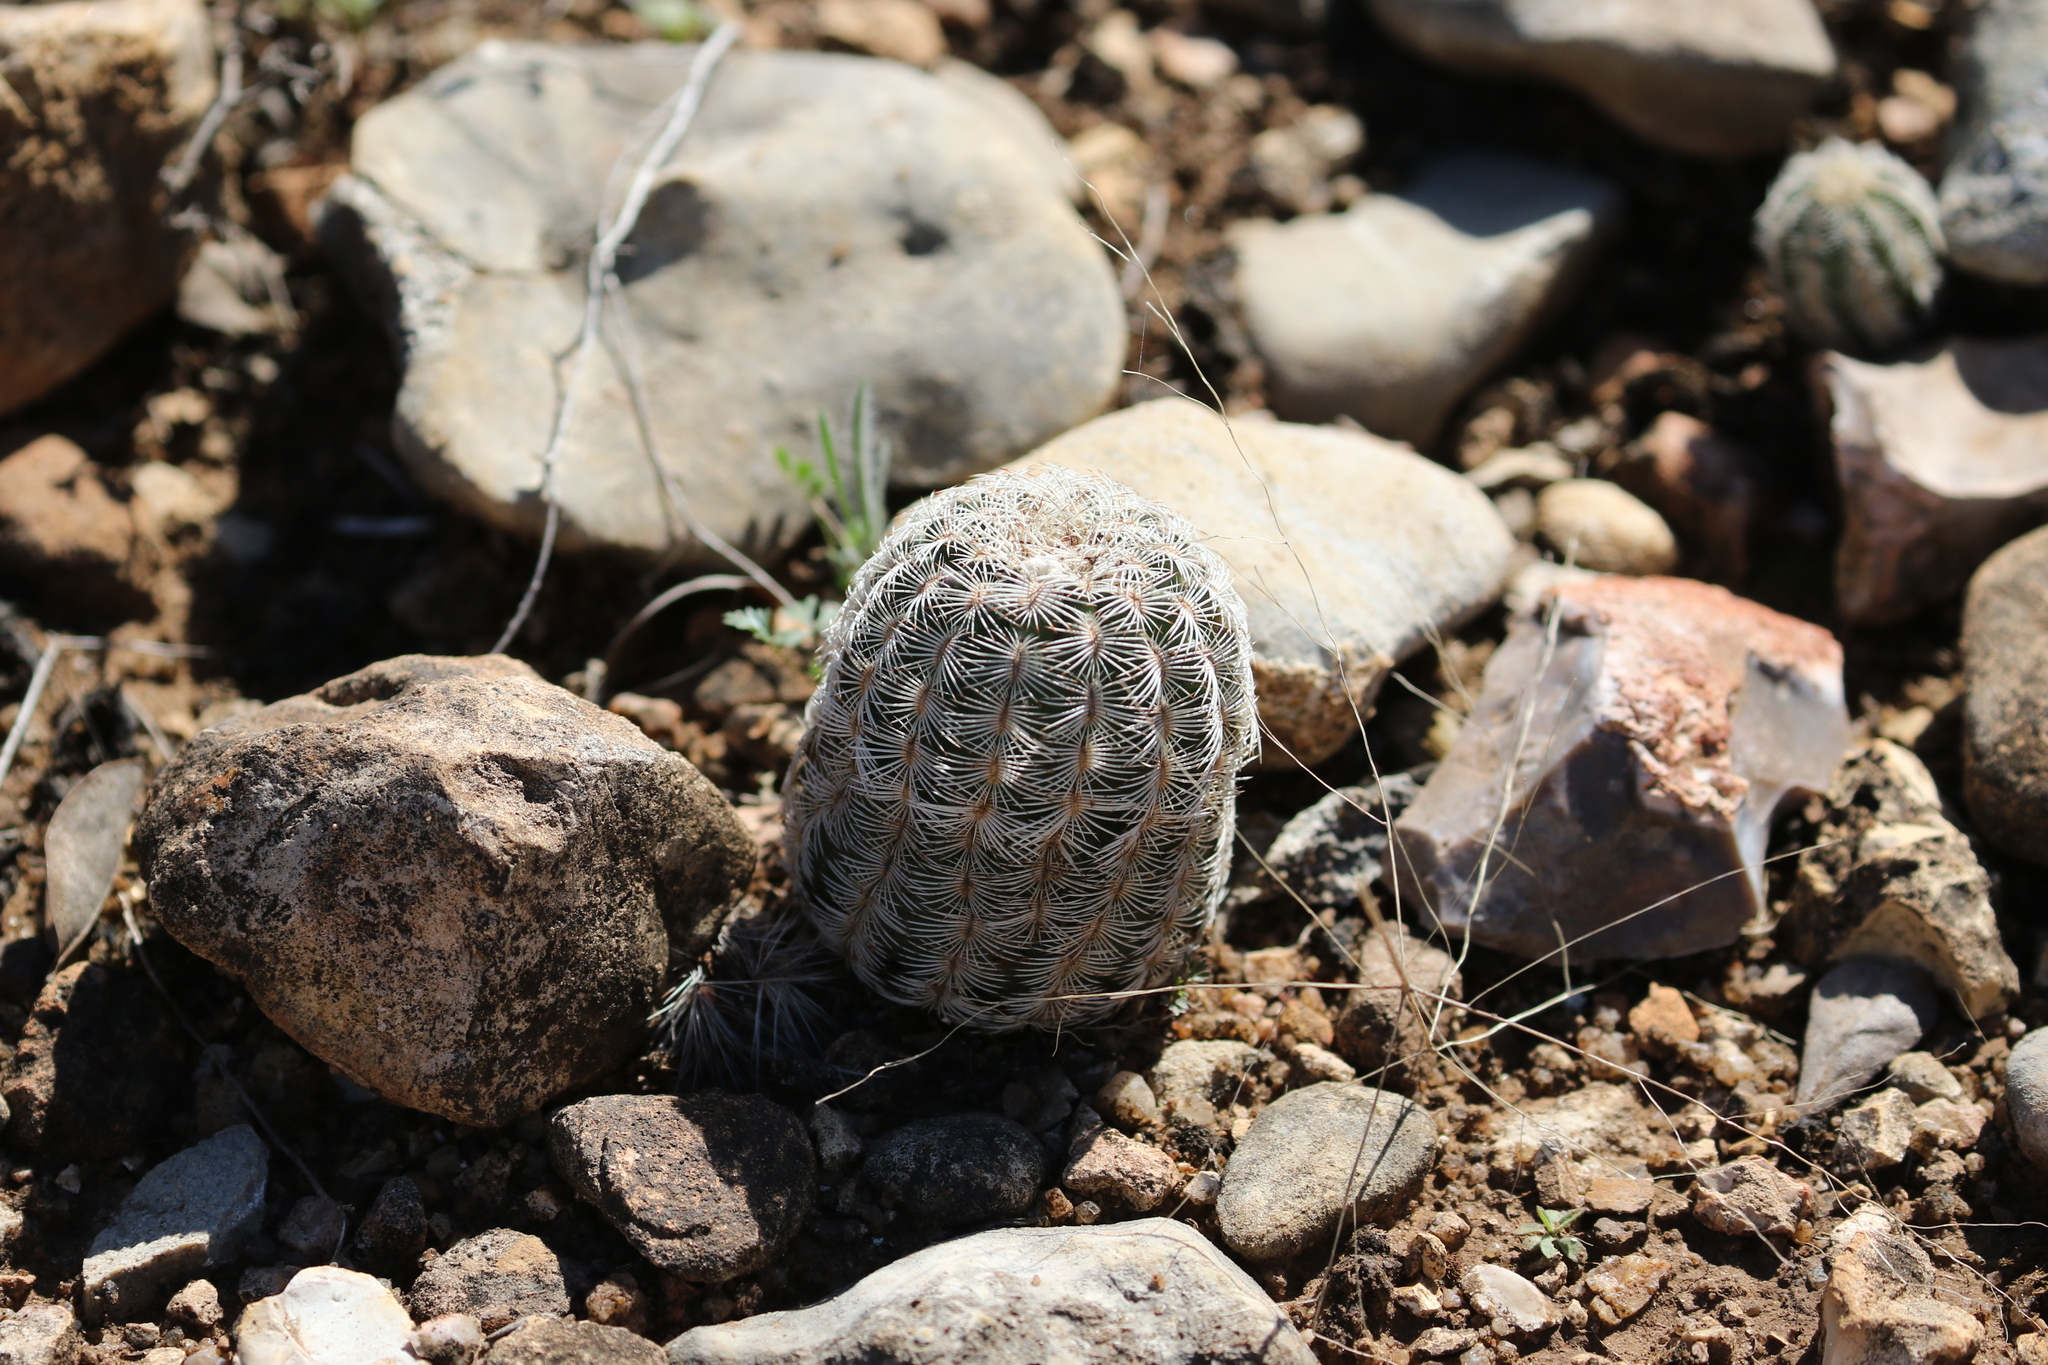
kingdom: Plantae
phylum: Tracheophyta
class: Magnoliopsida
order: Caryophyllales
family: Cactaceae
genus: Echinocereus
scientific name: Echinocereus reichenbachii
